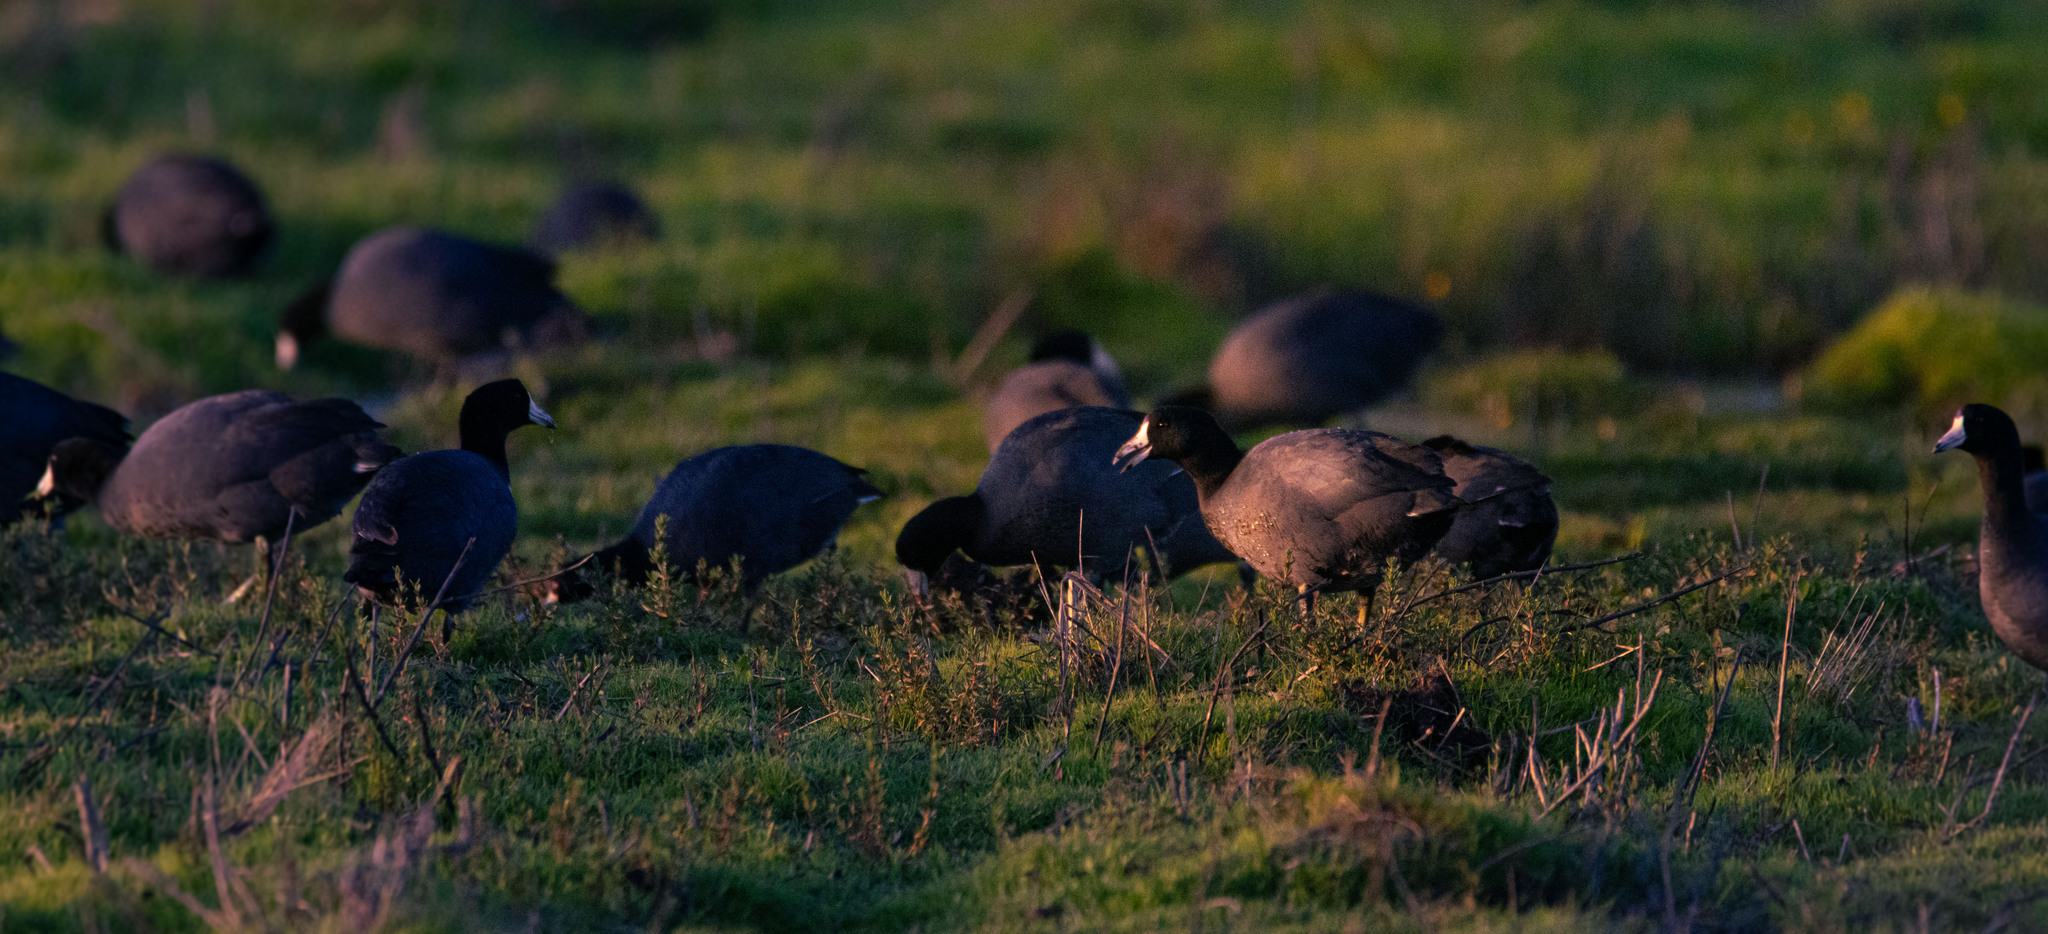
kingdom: Animalia
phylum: Chordata
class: Aves
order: Gruiformes
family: Rallidae
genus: Fulica
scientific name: Fulica americana
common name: American coot
